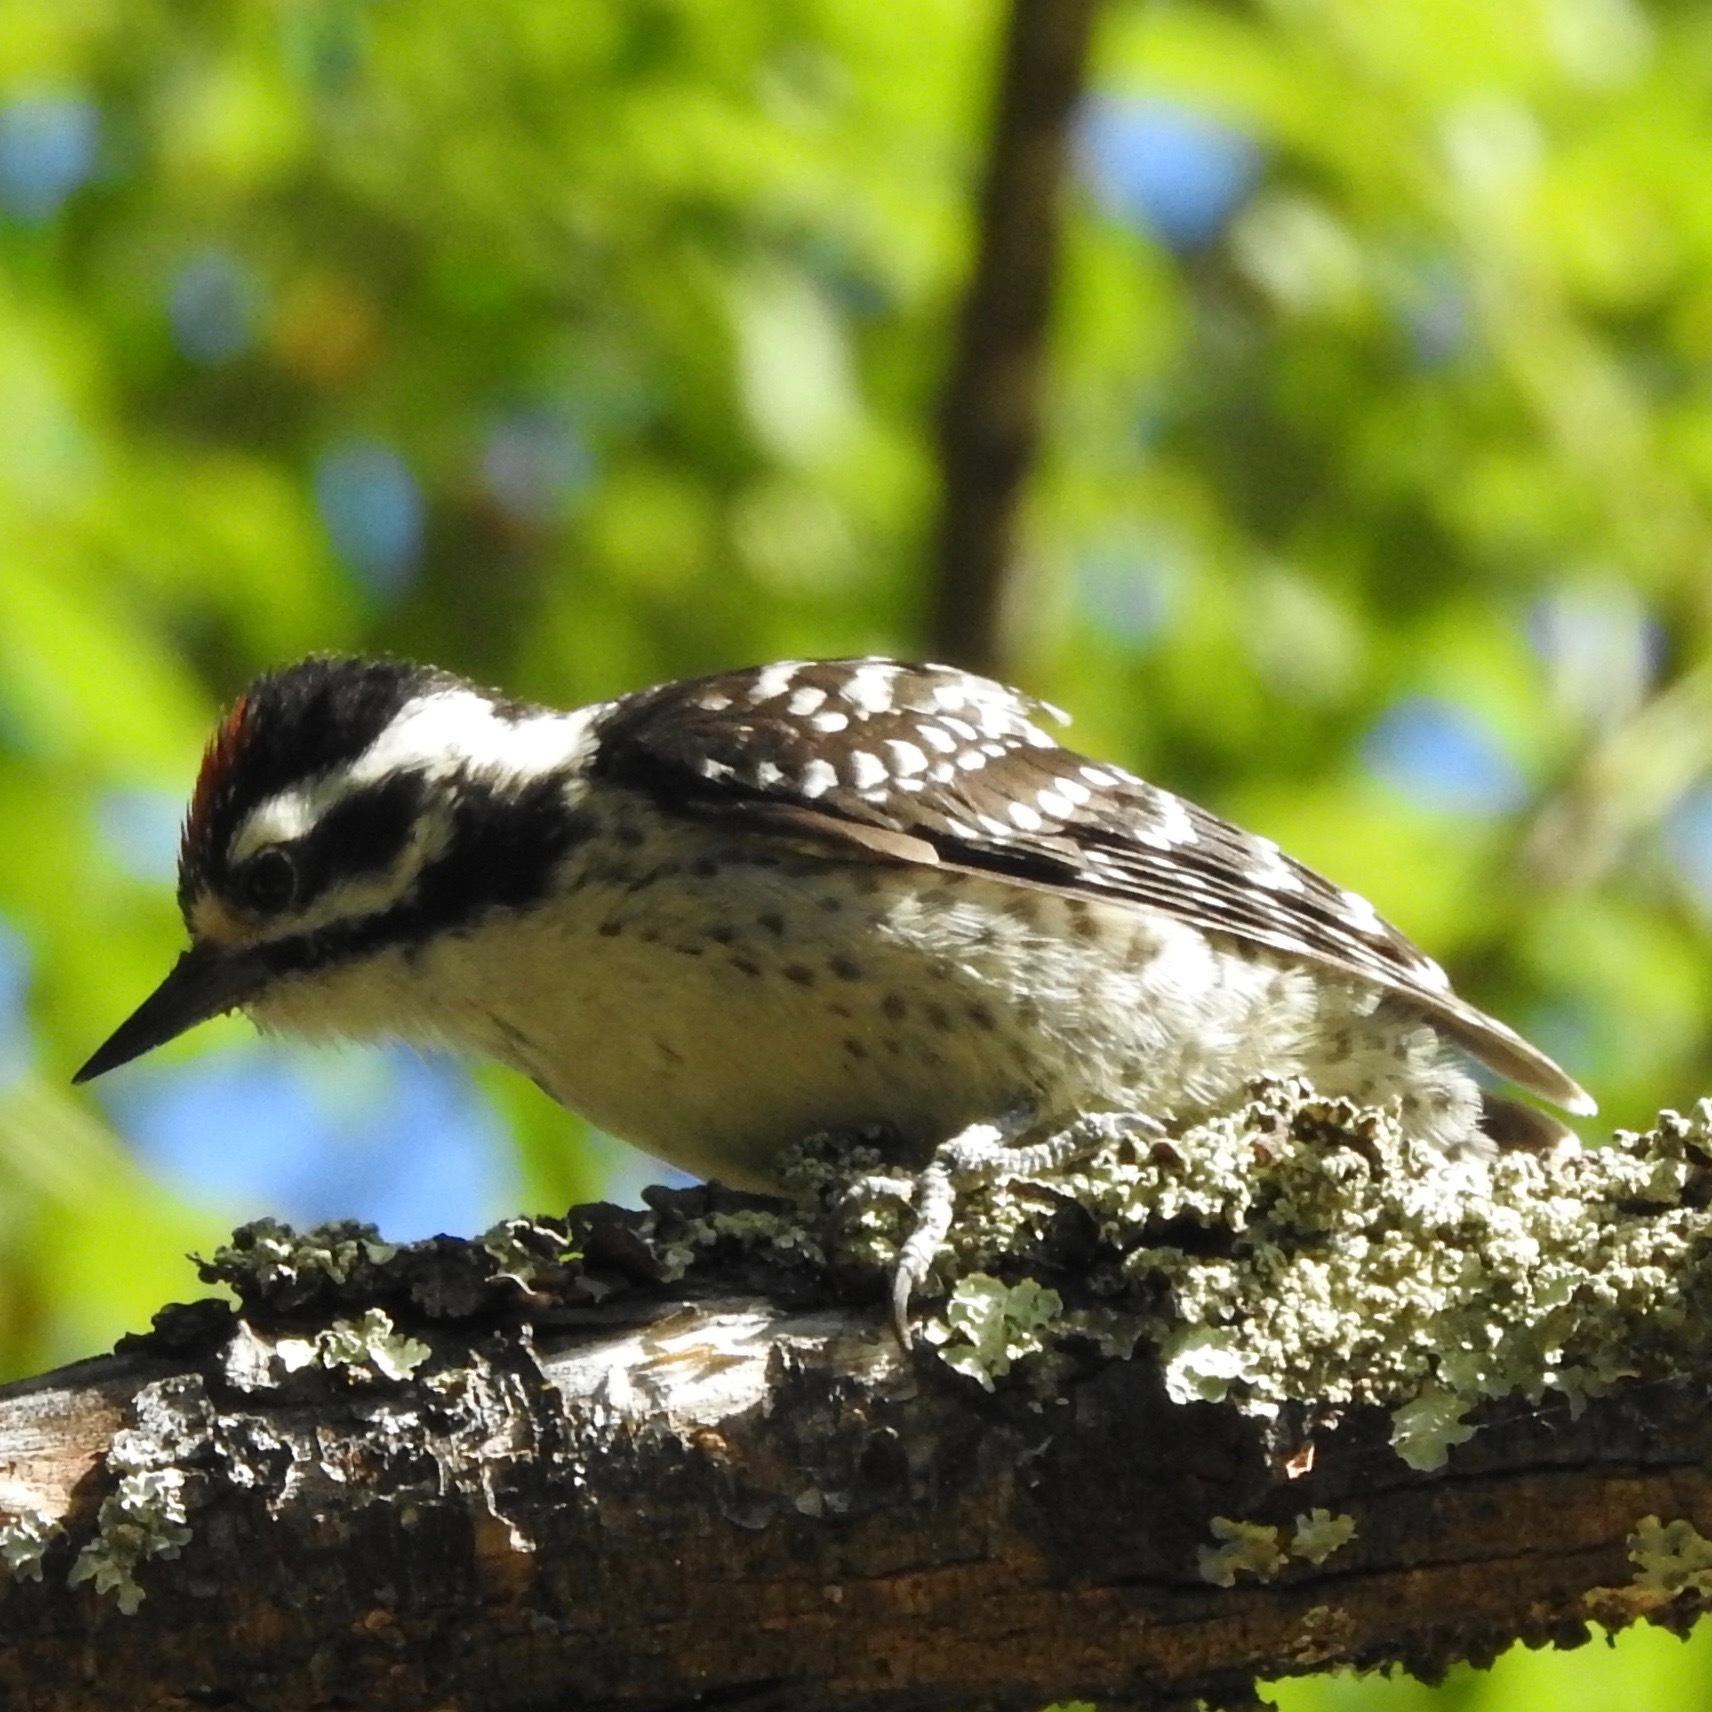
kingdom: Animalia
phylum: Chordata
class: Aves
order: Piciformes
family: Picidae
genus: Dryobates
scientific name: Dryobates nuttallii
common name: Nuttall's woodpecker
